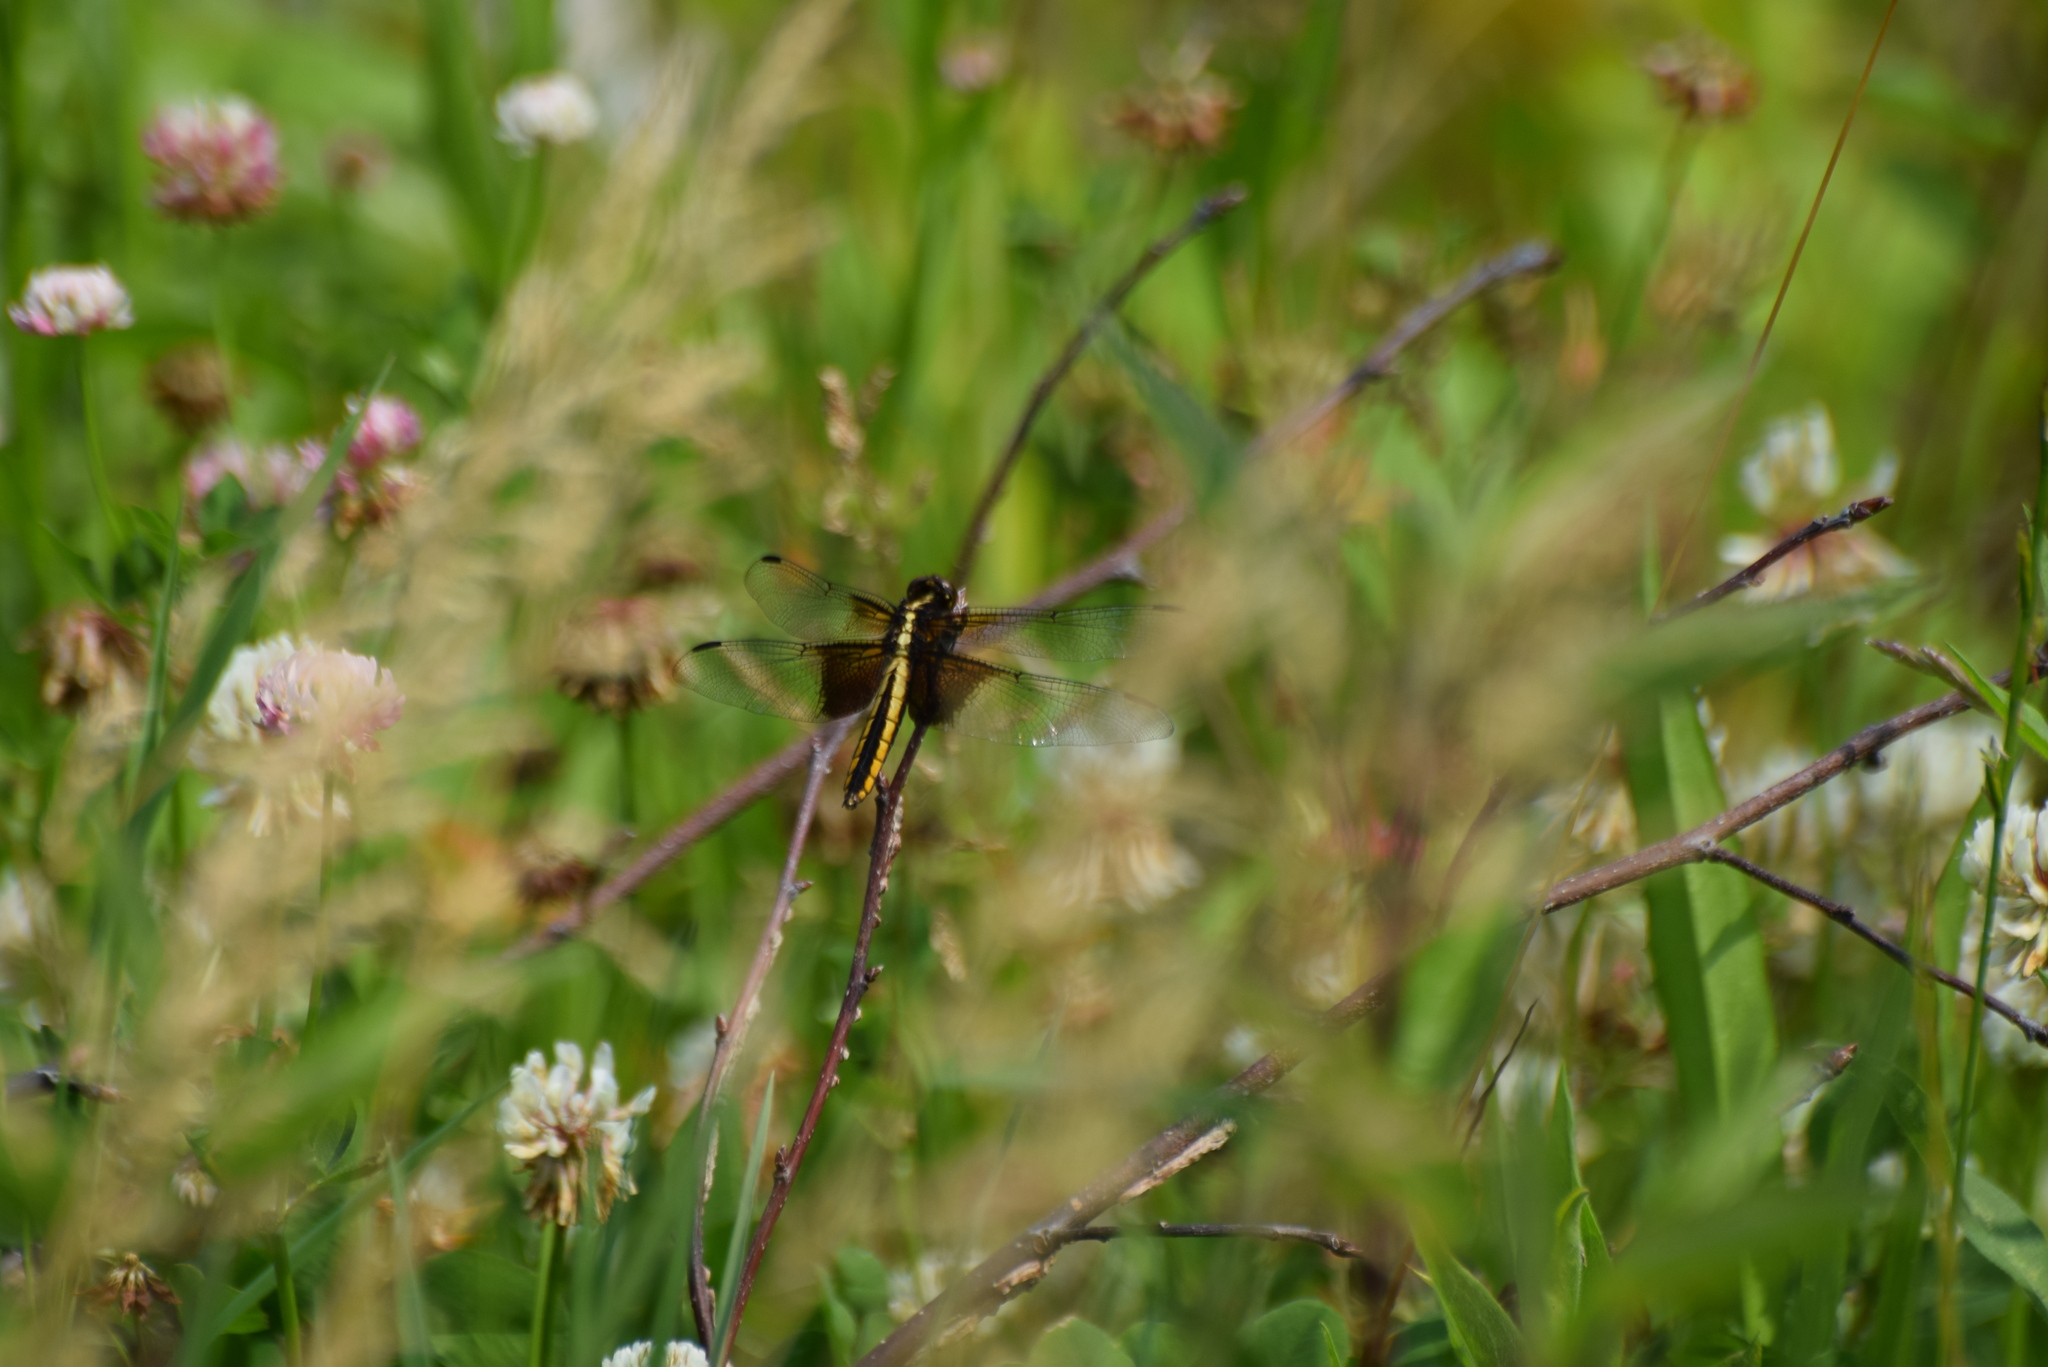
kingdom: Animalia
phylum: Arthropoda
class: Insecta
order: Odonata
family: Libellulidae
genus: Libellula
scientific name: Libellula luctuosa
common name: Widow skimmer
